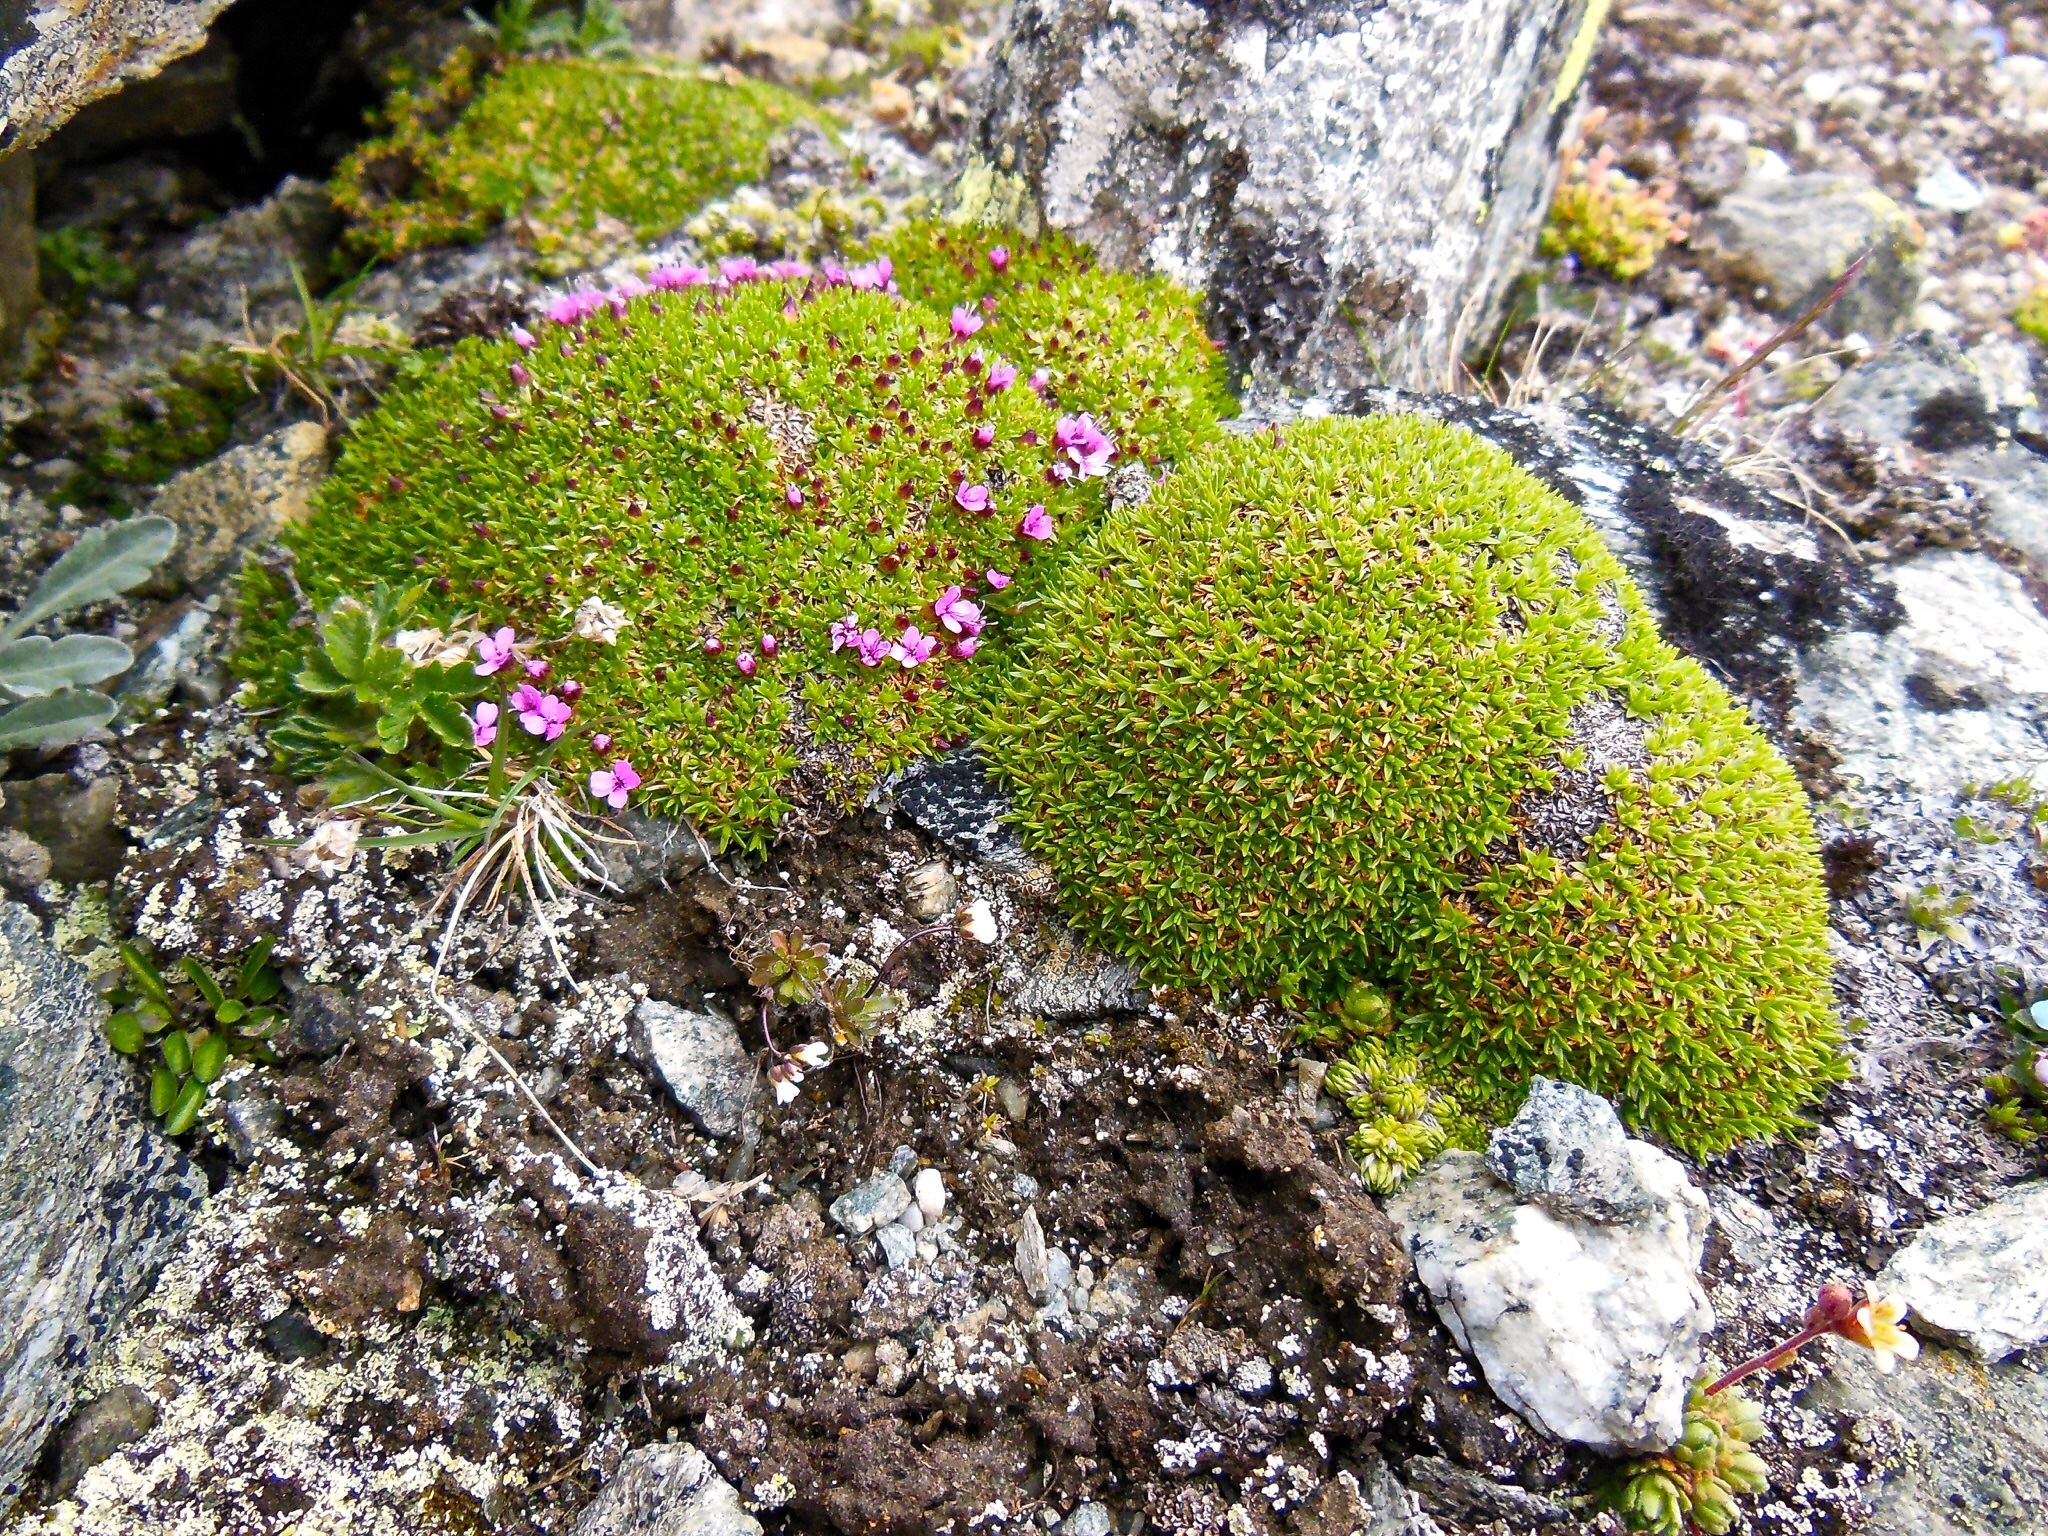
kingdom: Plantae
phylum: Tracheophyta
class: Magnoliopsida
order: Caryophyllales
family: Caryophyllaceae
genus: Silene
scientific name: Silene acaulis
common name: Moss campion
